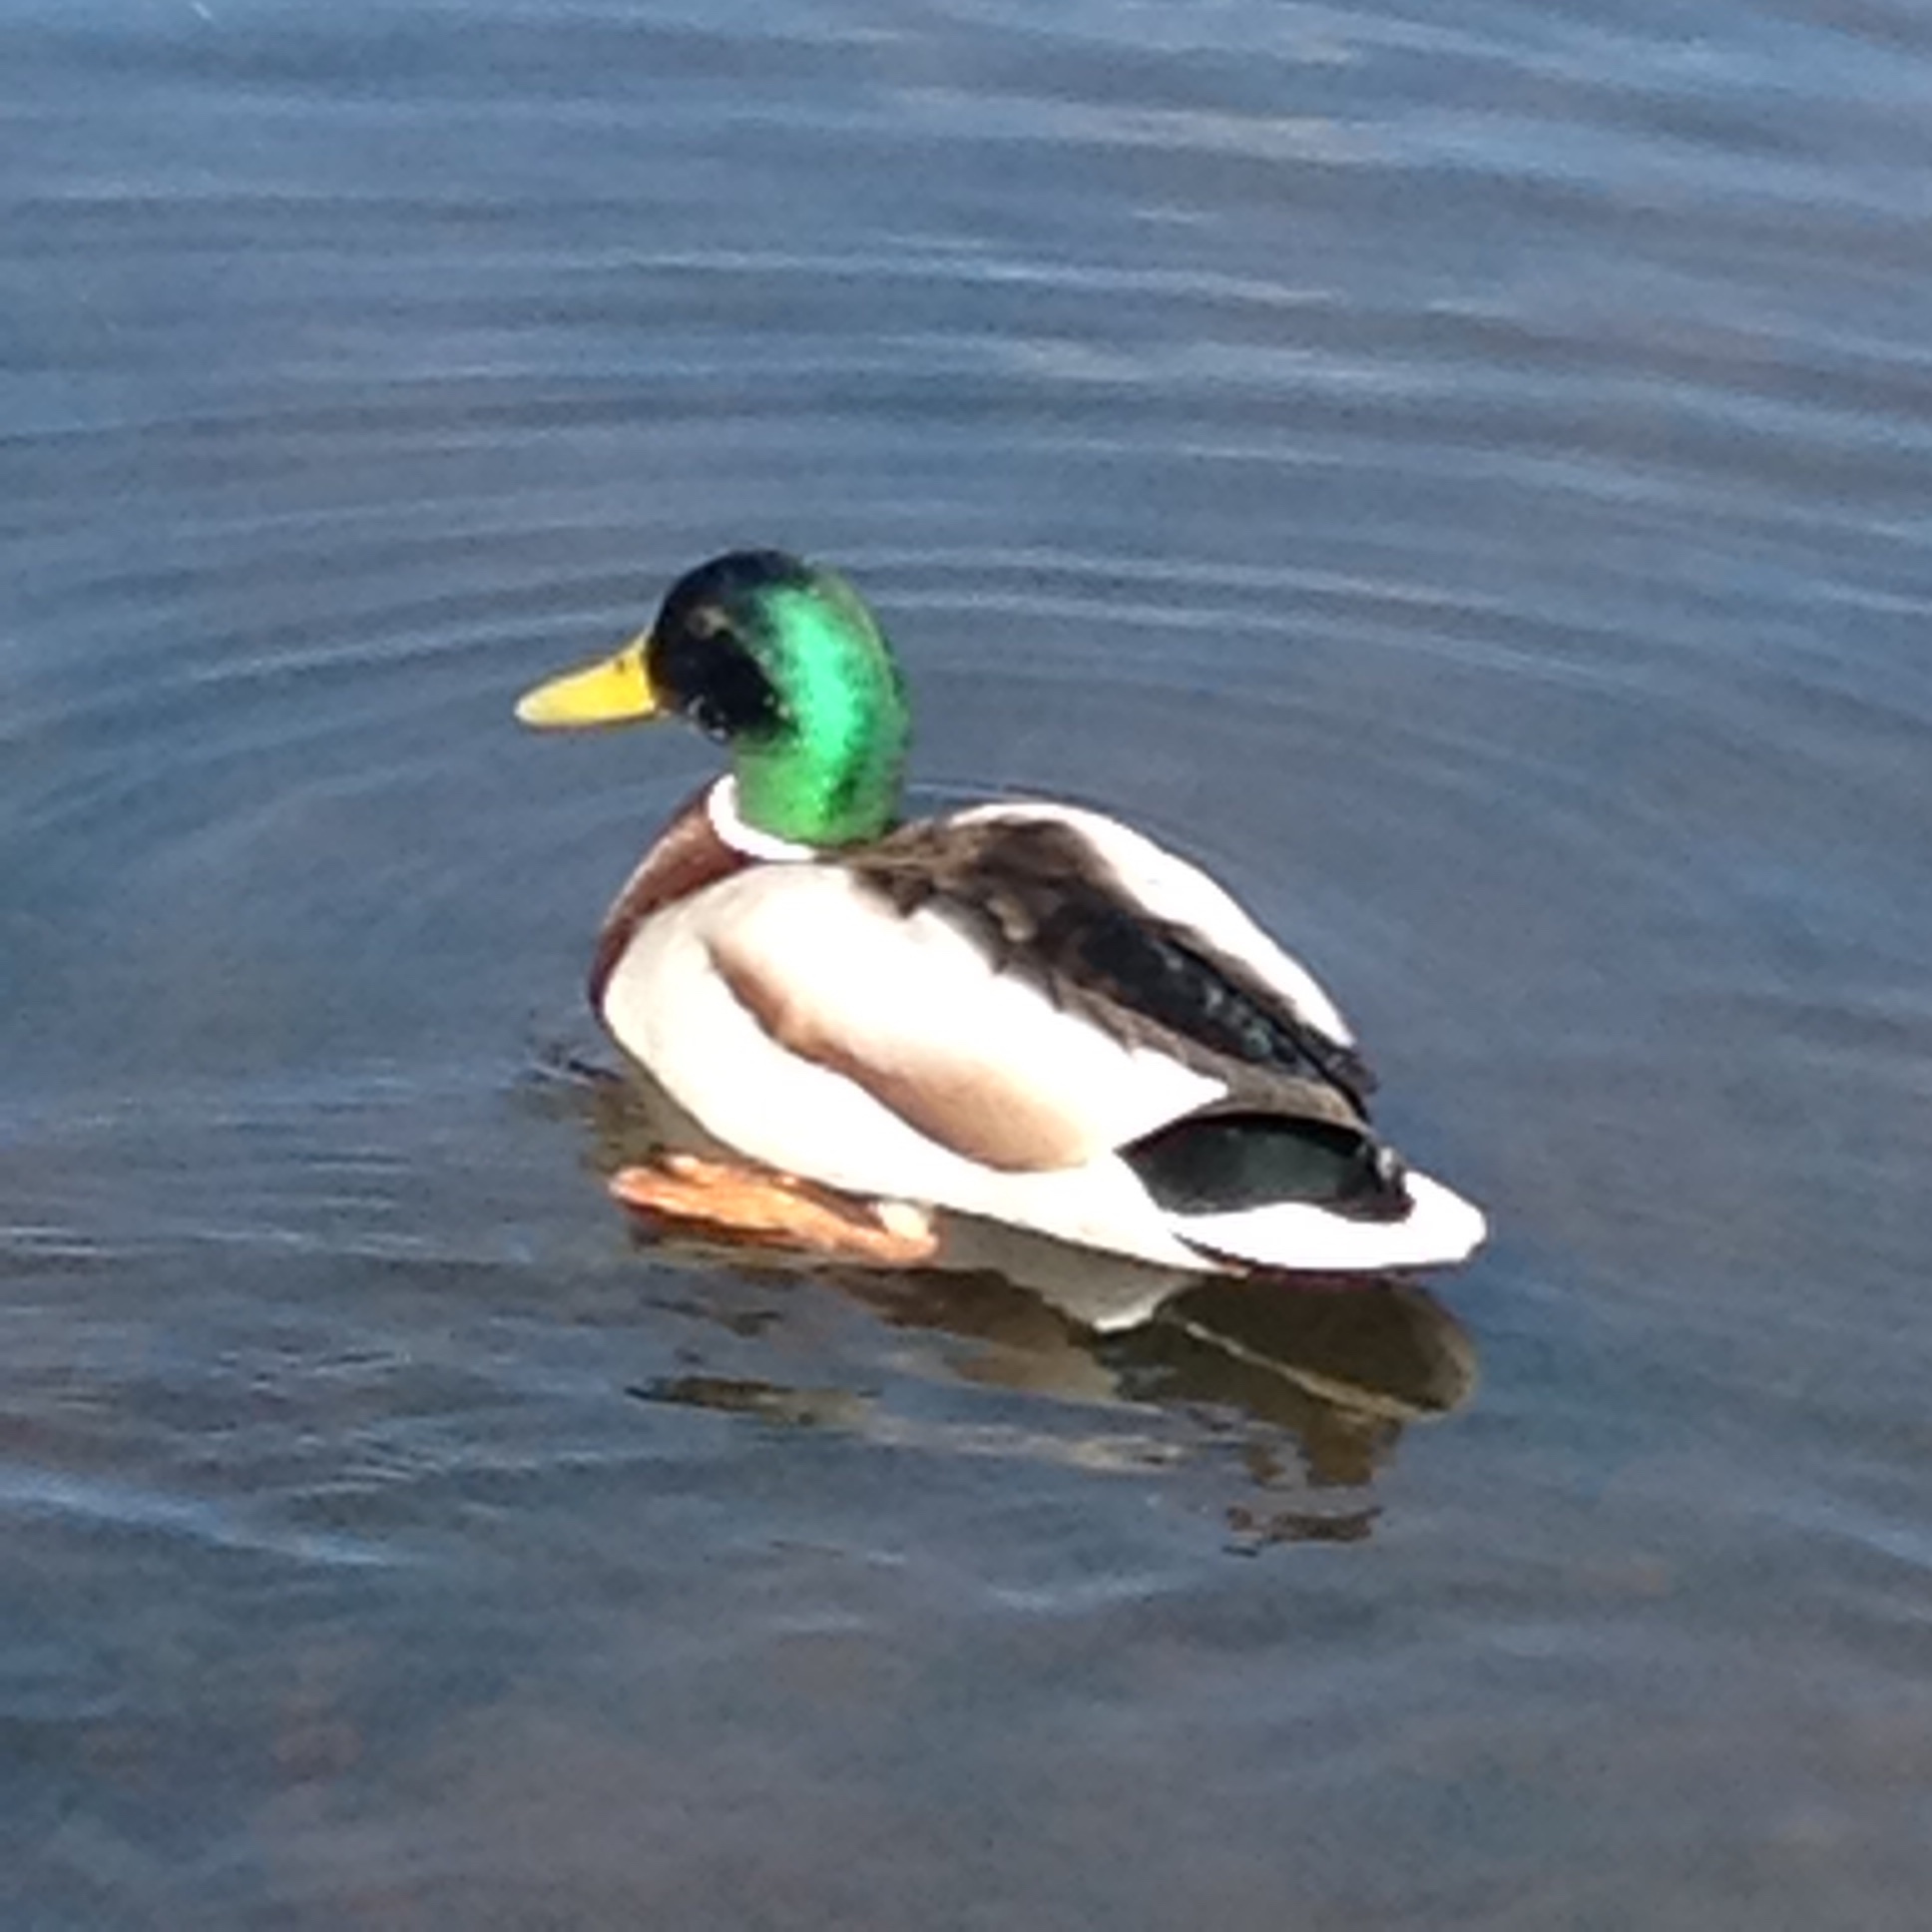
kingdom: Animalia
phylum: Chordata
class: Aves
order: Anseriformes
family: Anatidae
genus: Anas
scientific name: Anas platyrhynchos
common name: Mallard
